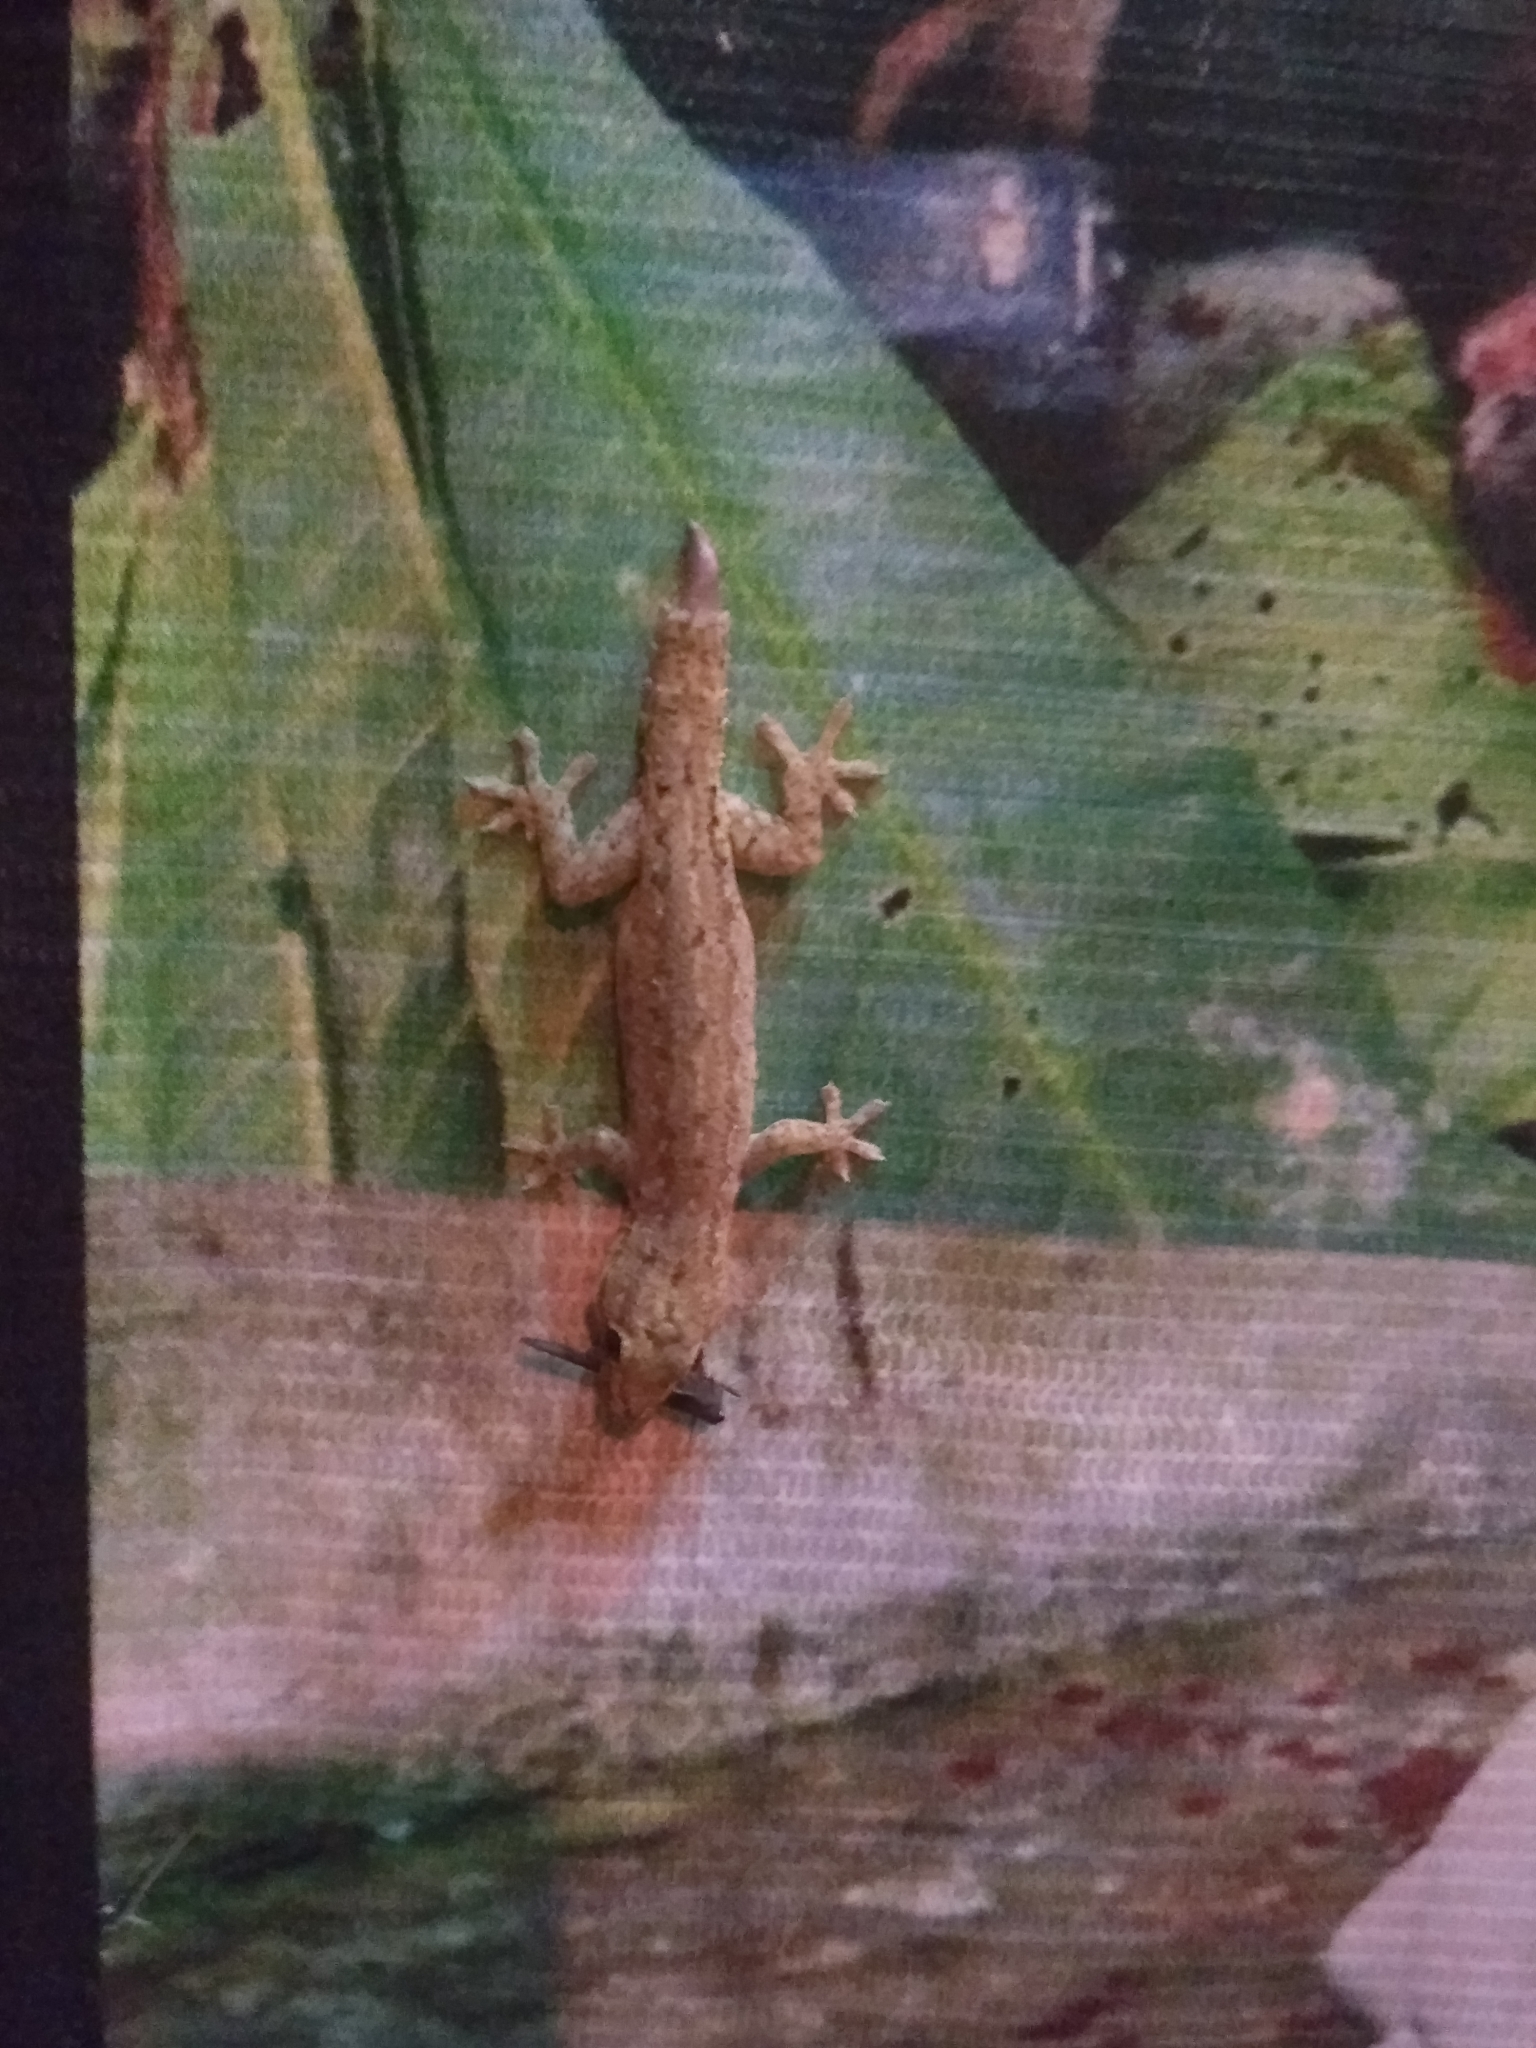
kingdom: Animalia
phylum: Chordata
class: Squamata
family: Gekkonidae
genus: Hemidactylus
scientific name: Hemidactylus frenatus
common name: Common house gecko
